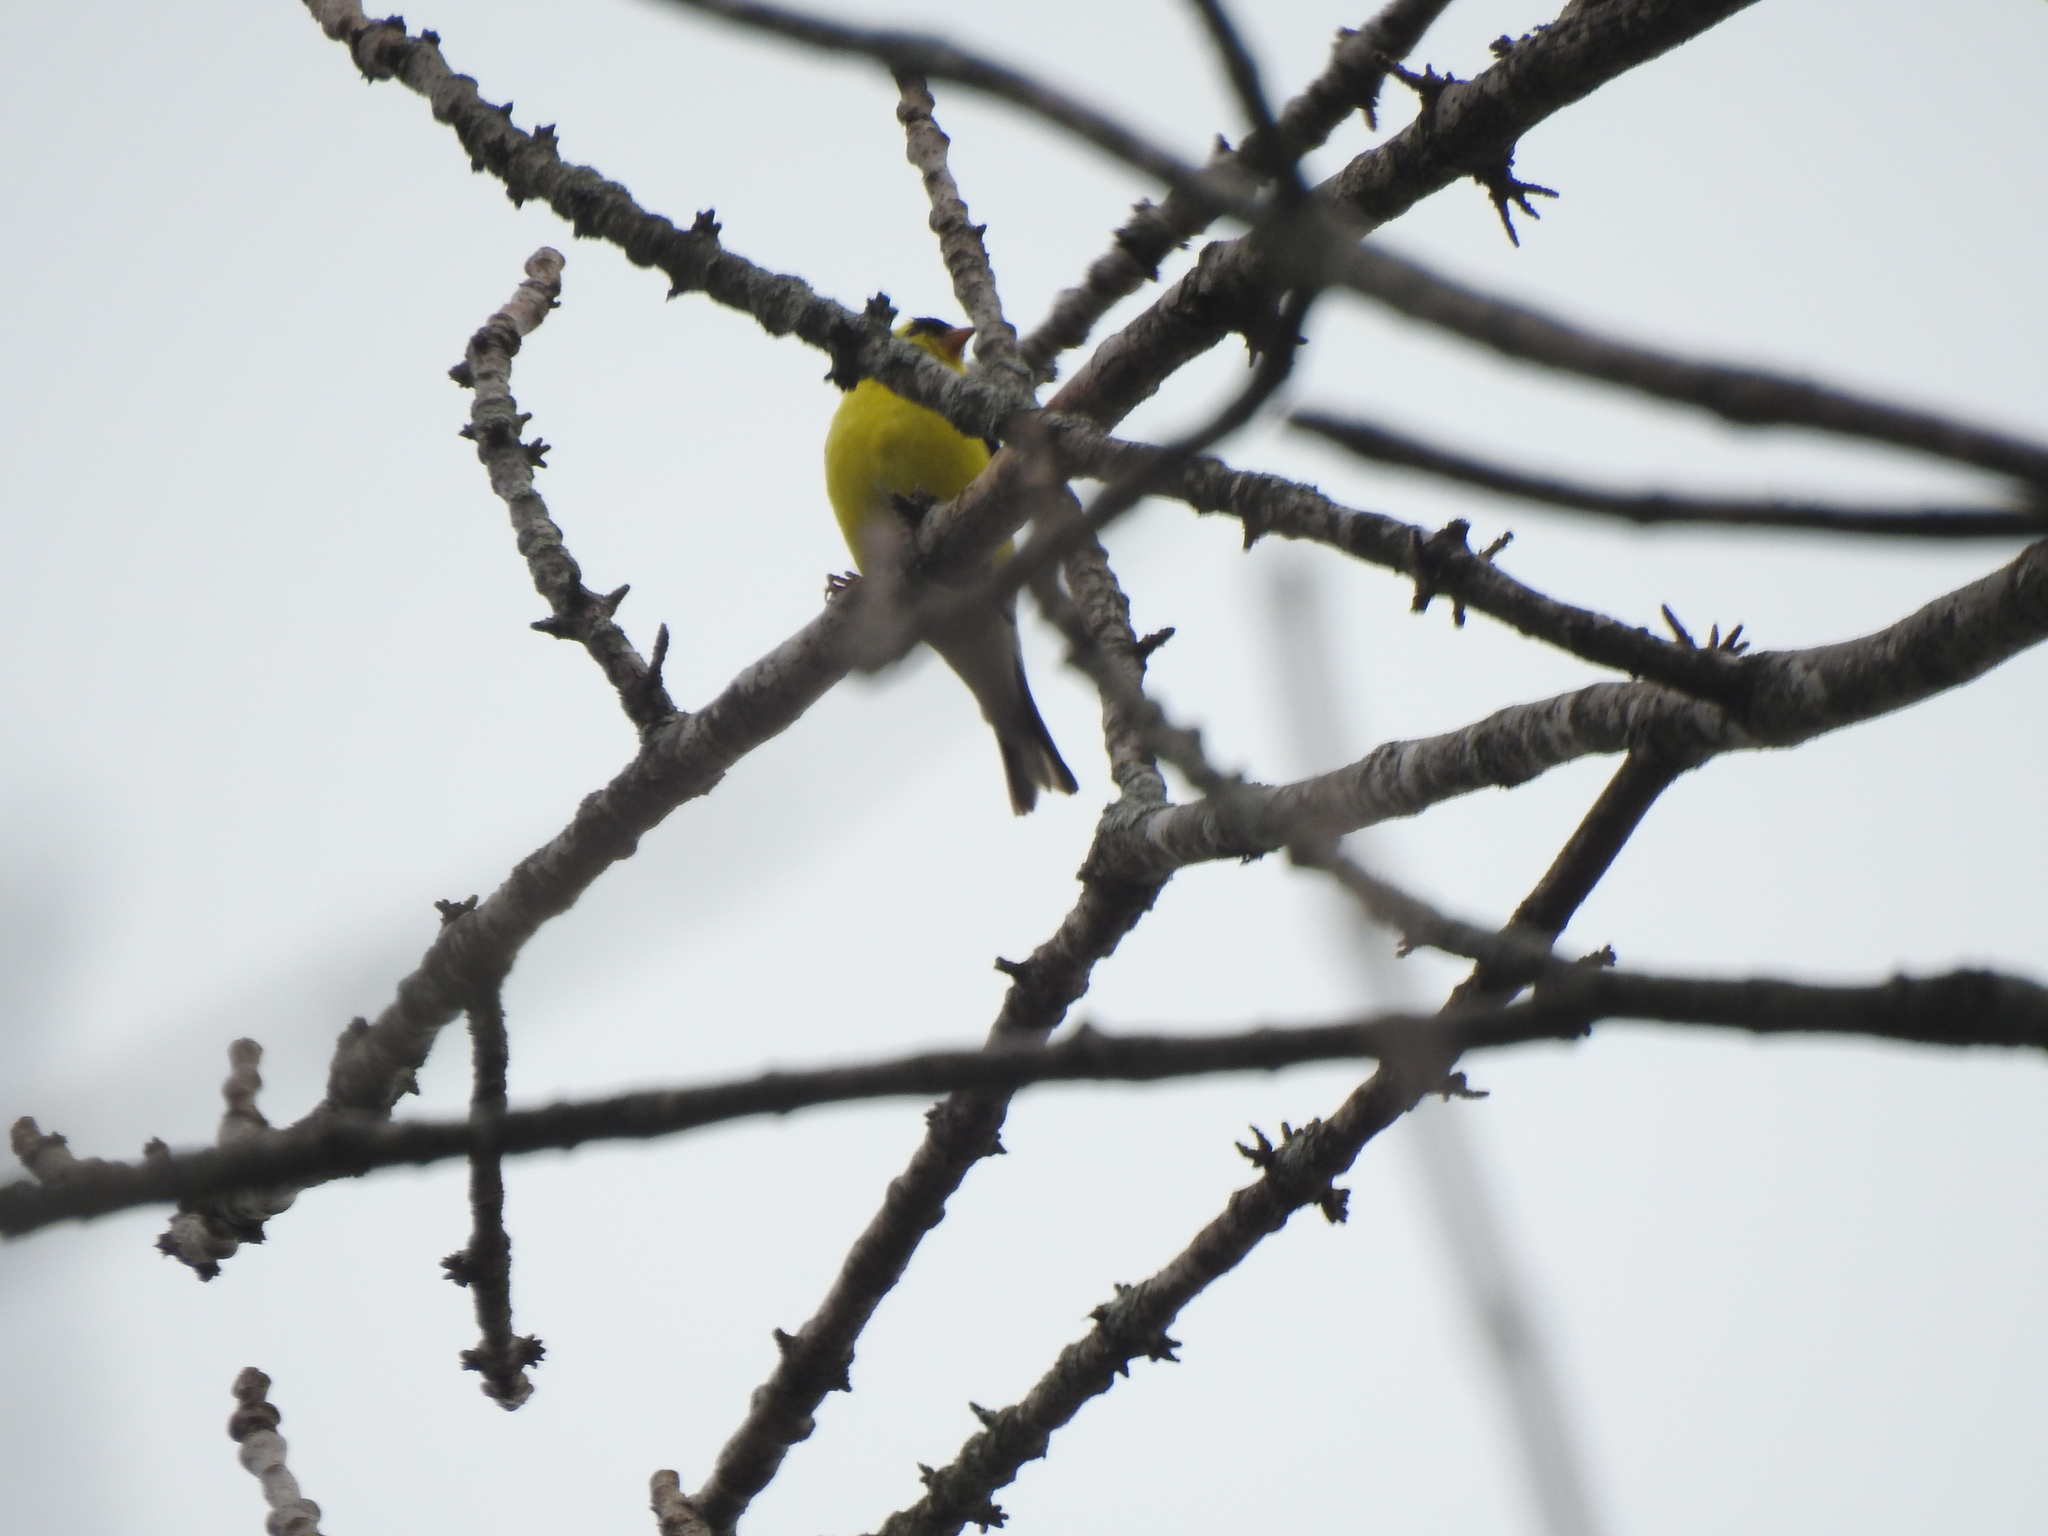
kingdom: Animalia
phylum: Chordata
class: Aves
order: Passeriformes
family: Fringillidae
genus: Spinus
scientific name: Spinus tristis
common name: American goldfinch
